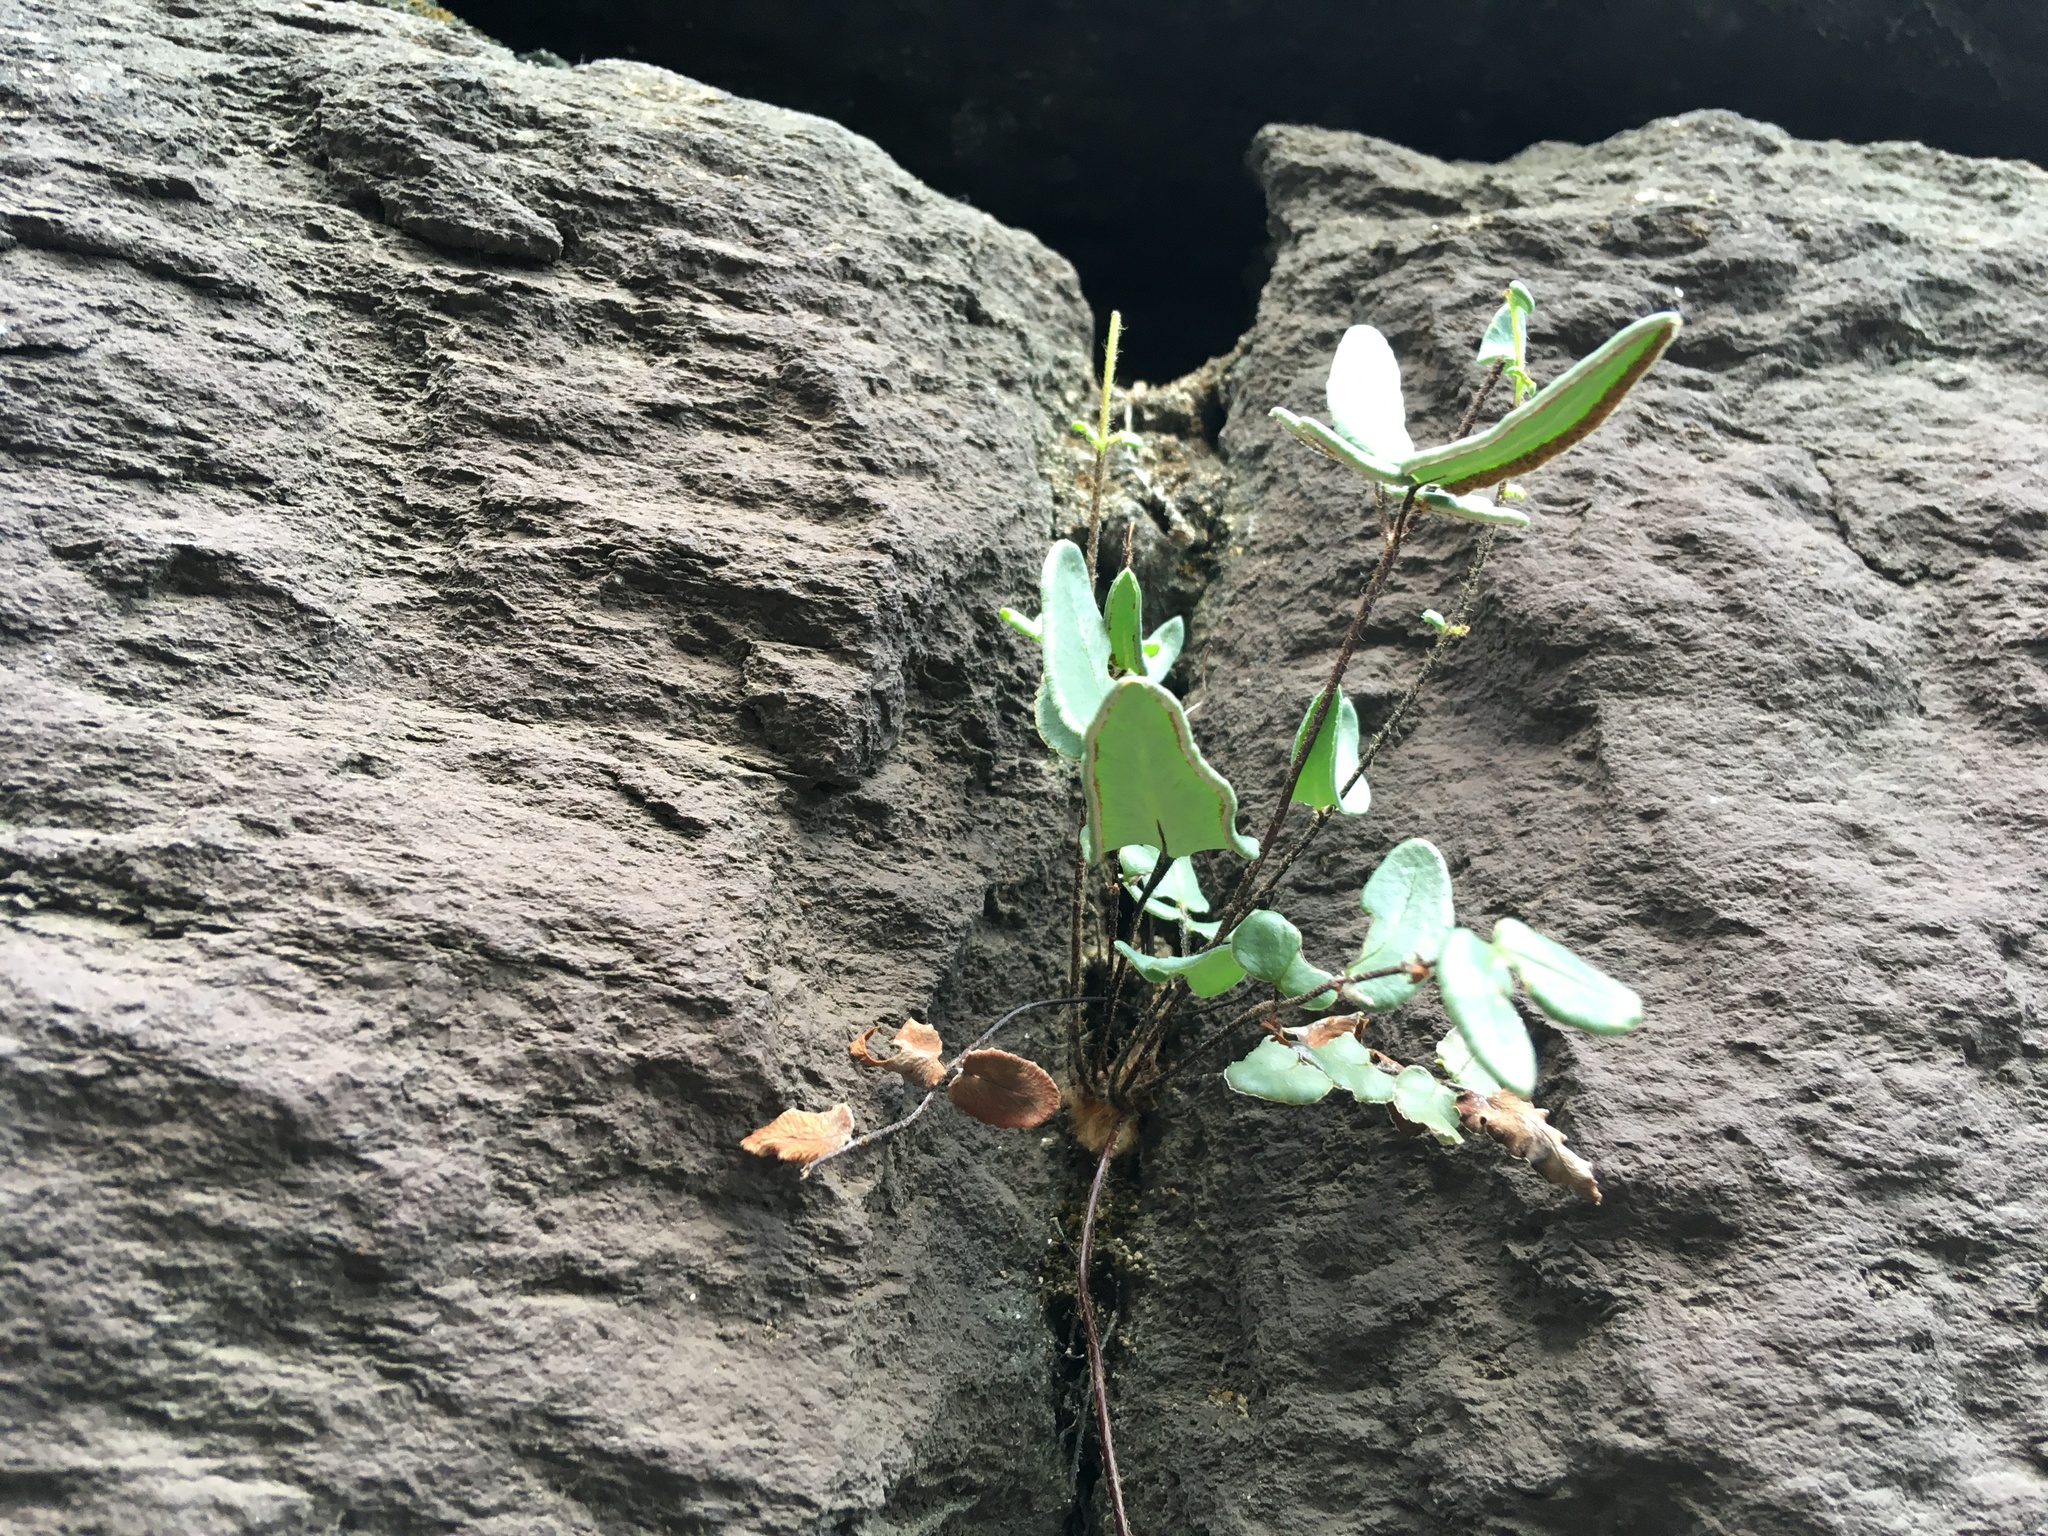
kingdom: Plantae
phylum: Tracheophyta
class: Polypodiopsida
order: Polypodiales
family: Pteridaceae
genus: Pellaea
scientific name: Pellaea atropurpurea
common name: Hairy cliffbrake
